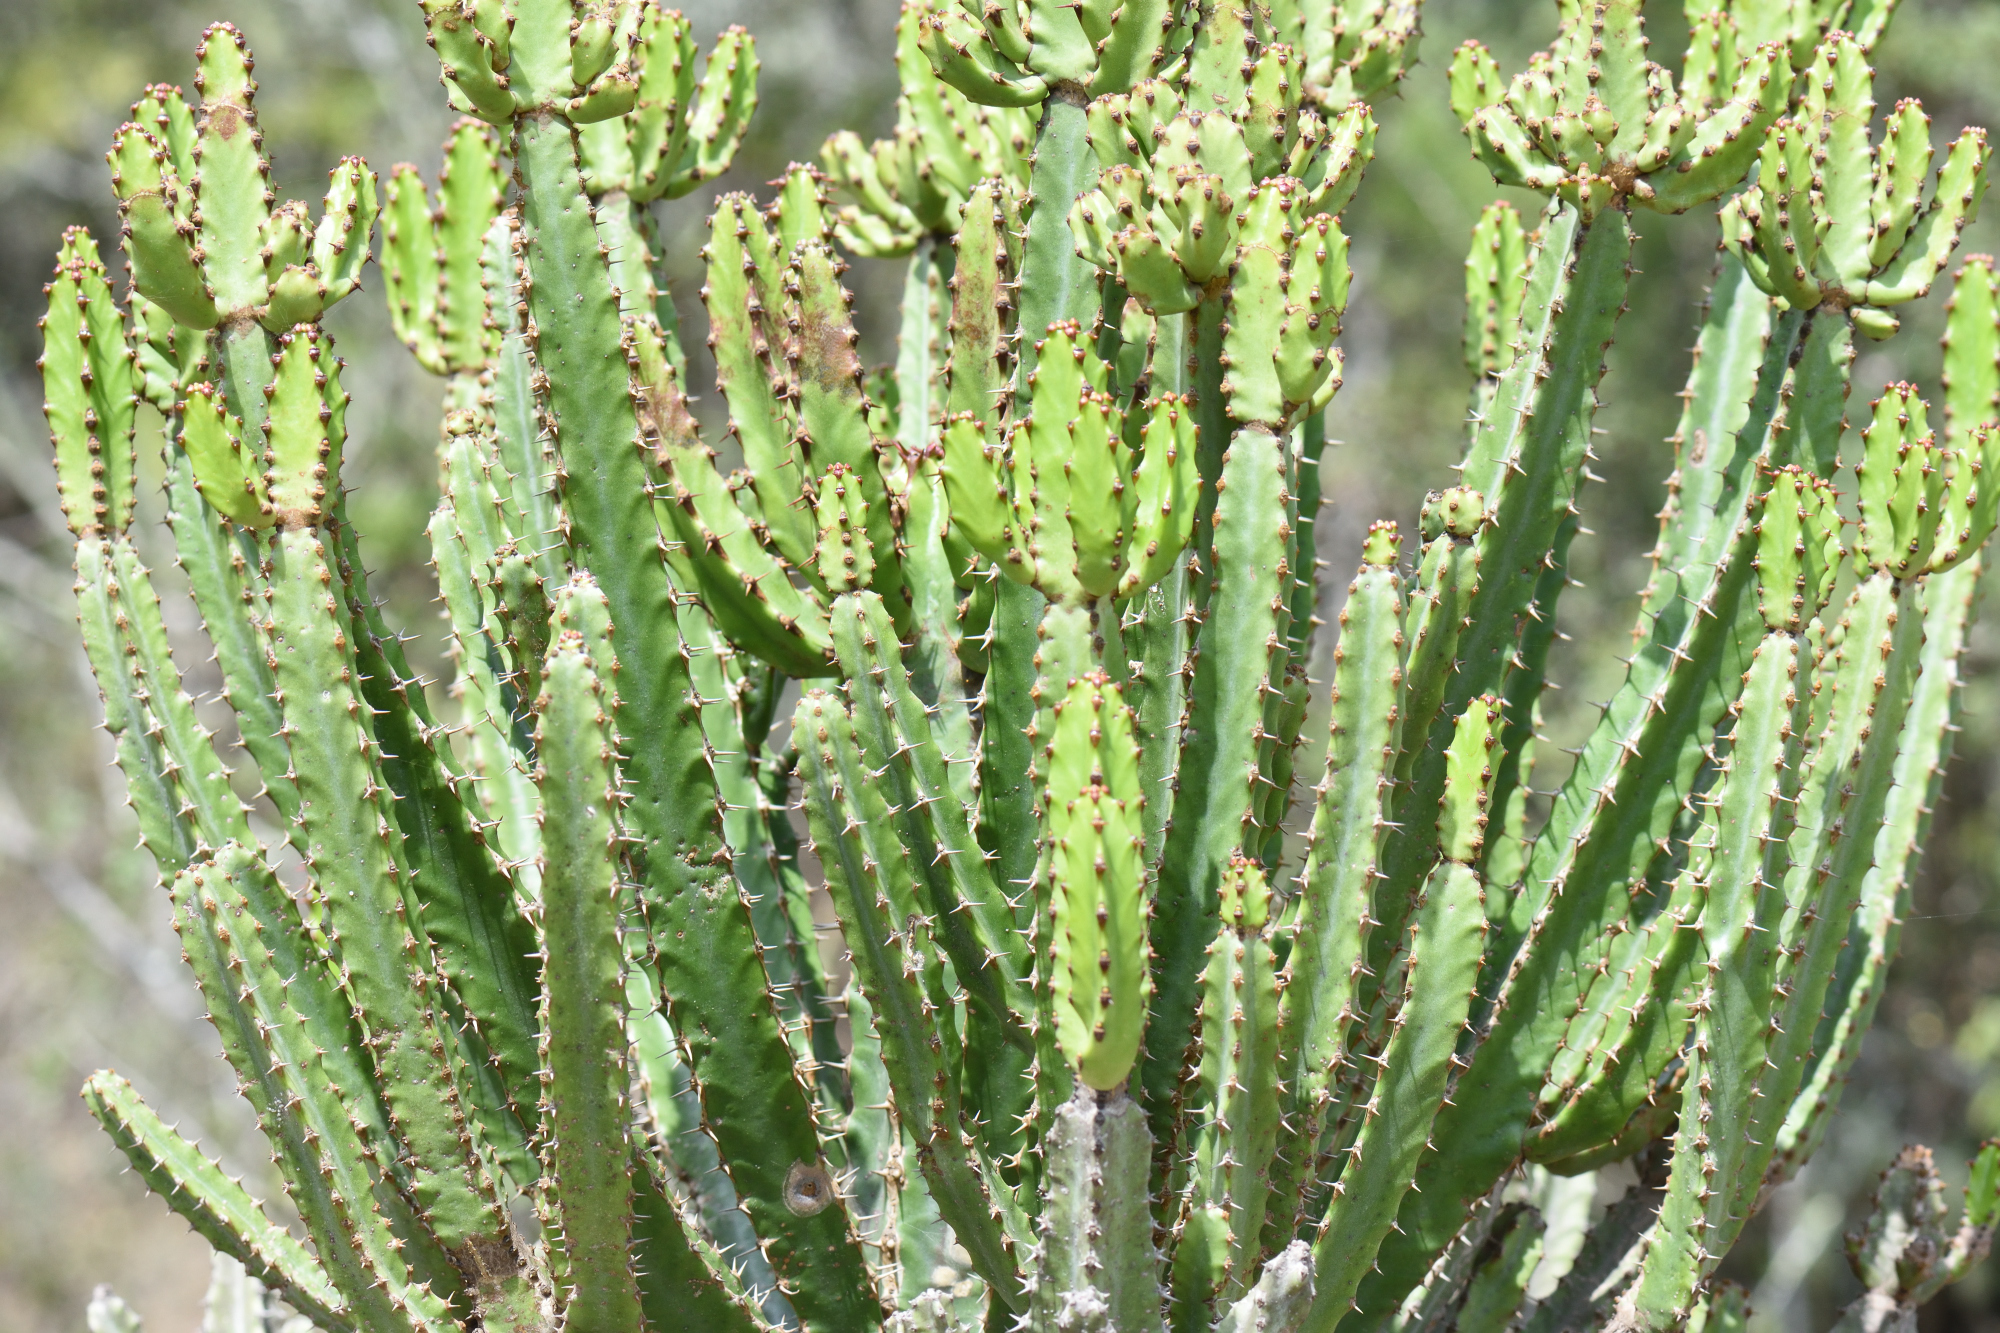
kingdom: Plantae
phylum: Tracheophyta
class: Magnoliopsida
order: Malpighiales
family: Euphorbiaceae
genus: Euphorbia
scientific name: Euphorbia tetragona
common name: Honey euphorbia
